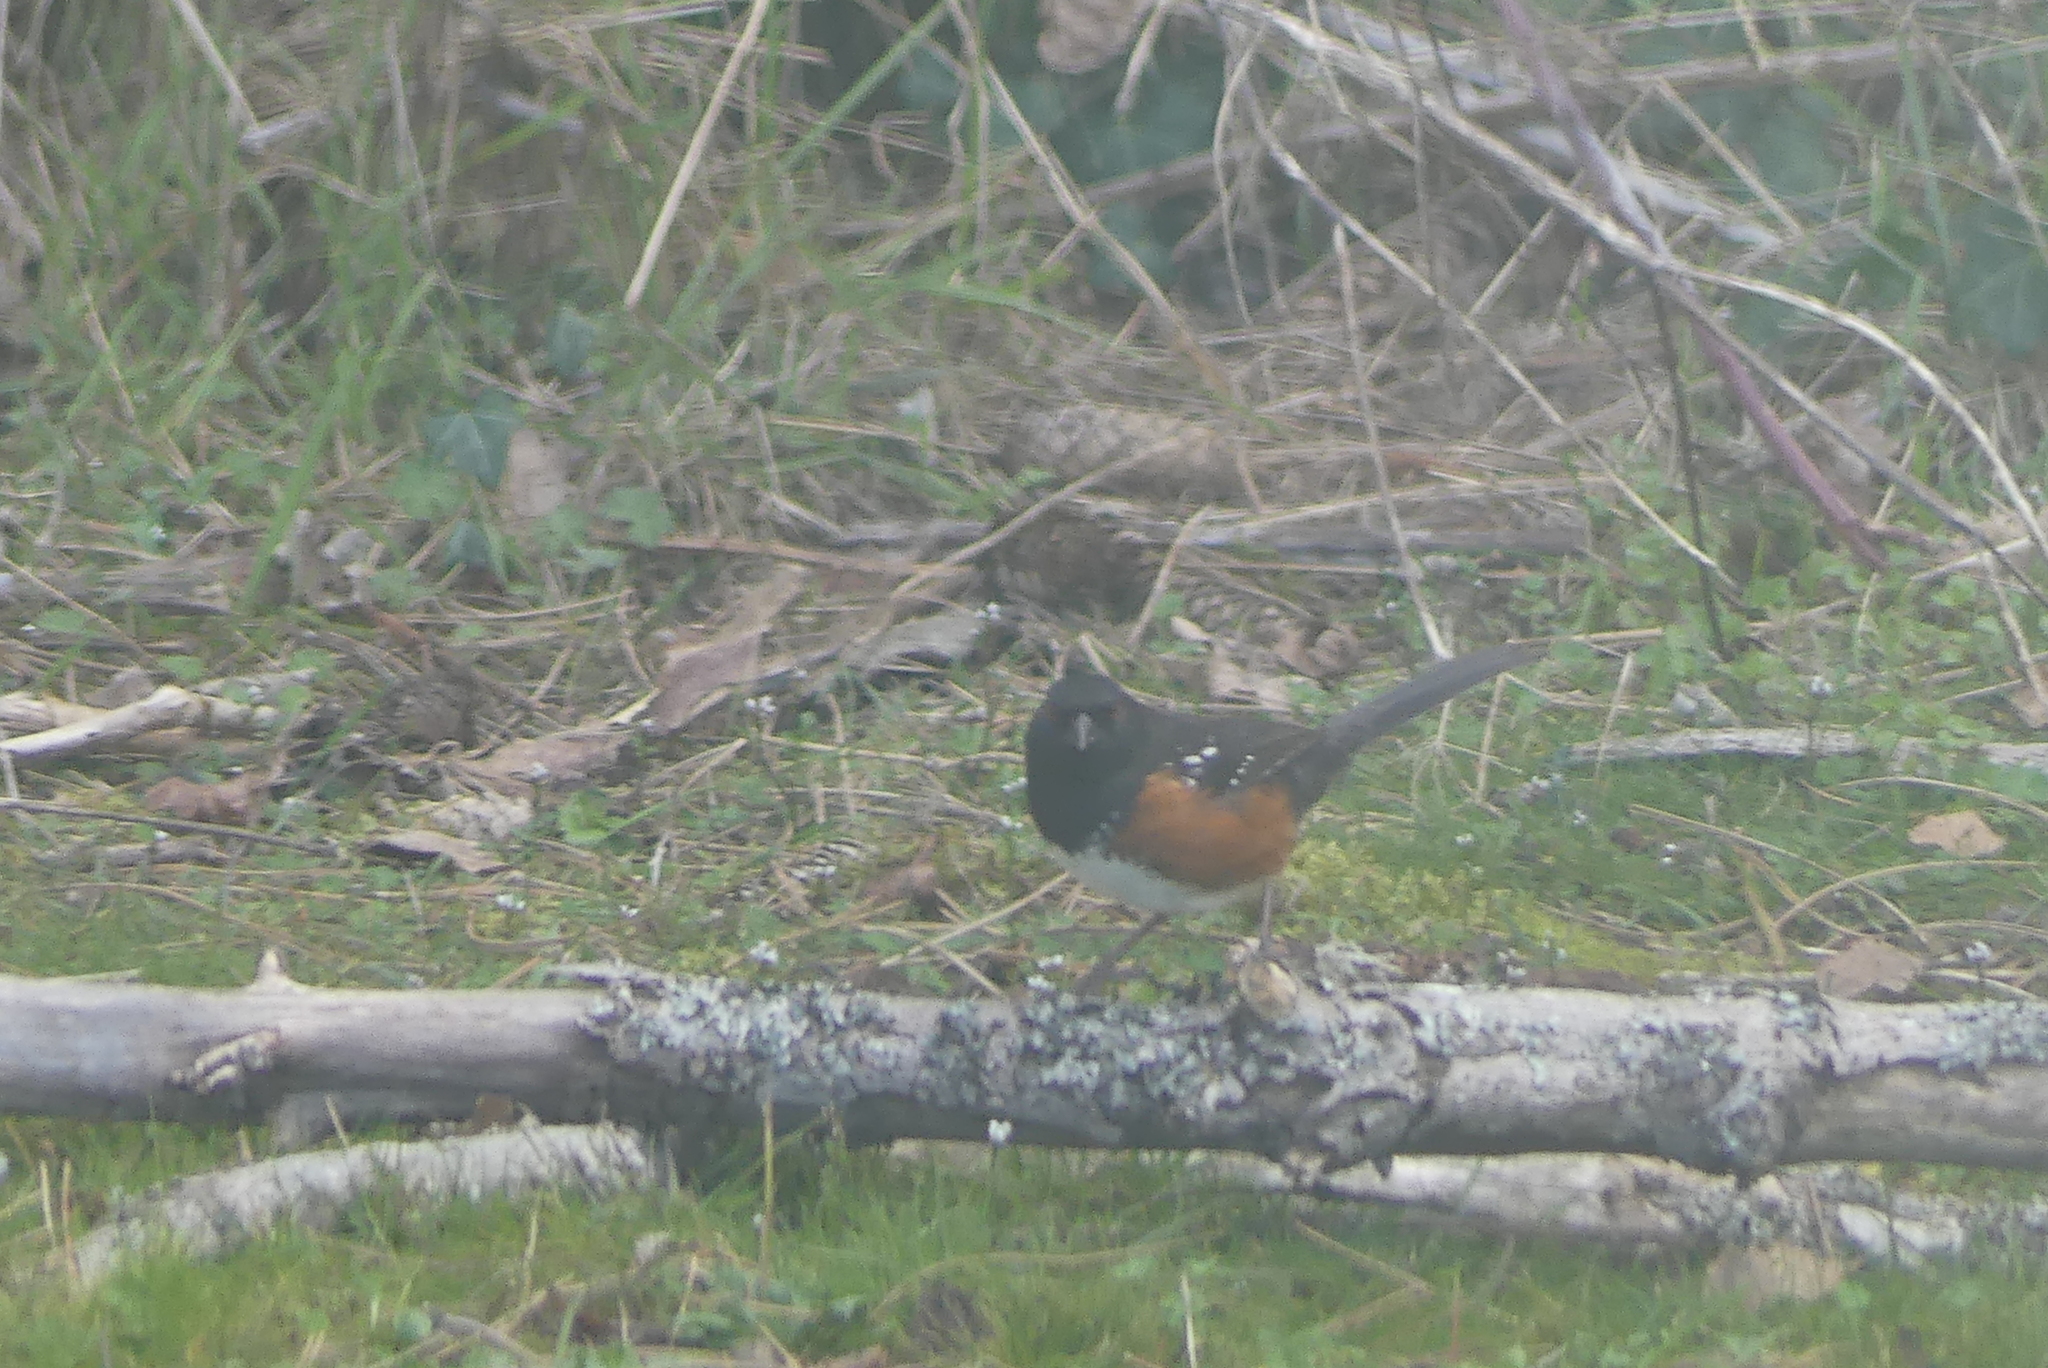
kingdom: Animalia
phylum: Chordata
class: Aves
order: Passeriformes
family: Passerellidae
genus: Pipilo
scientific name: Pipilo maculatus
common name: Spotted towhee
